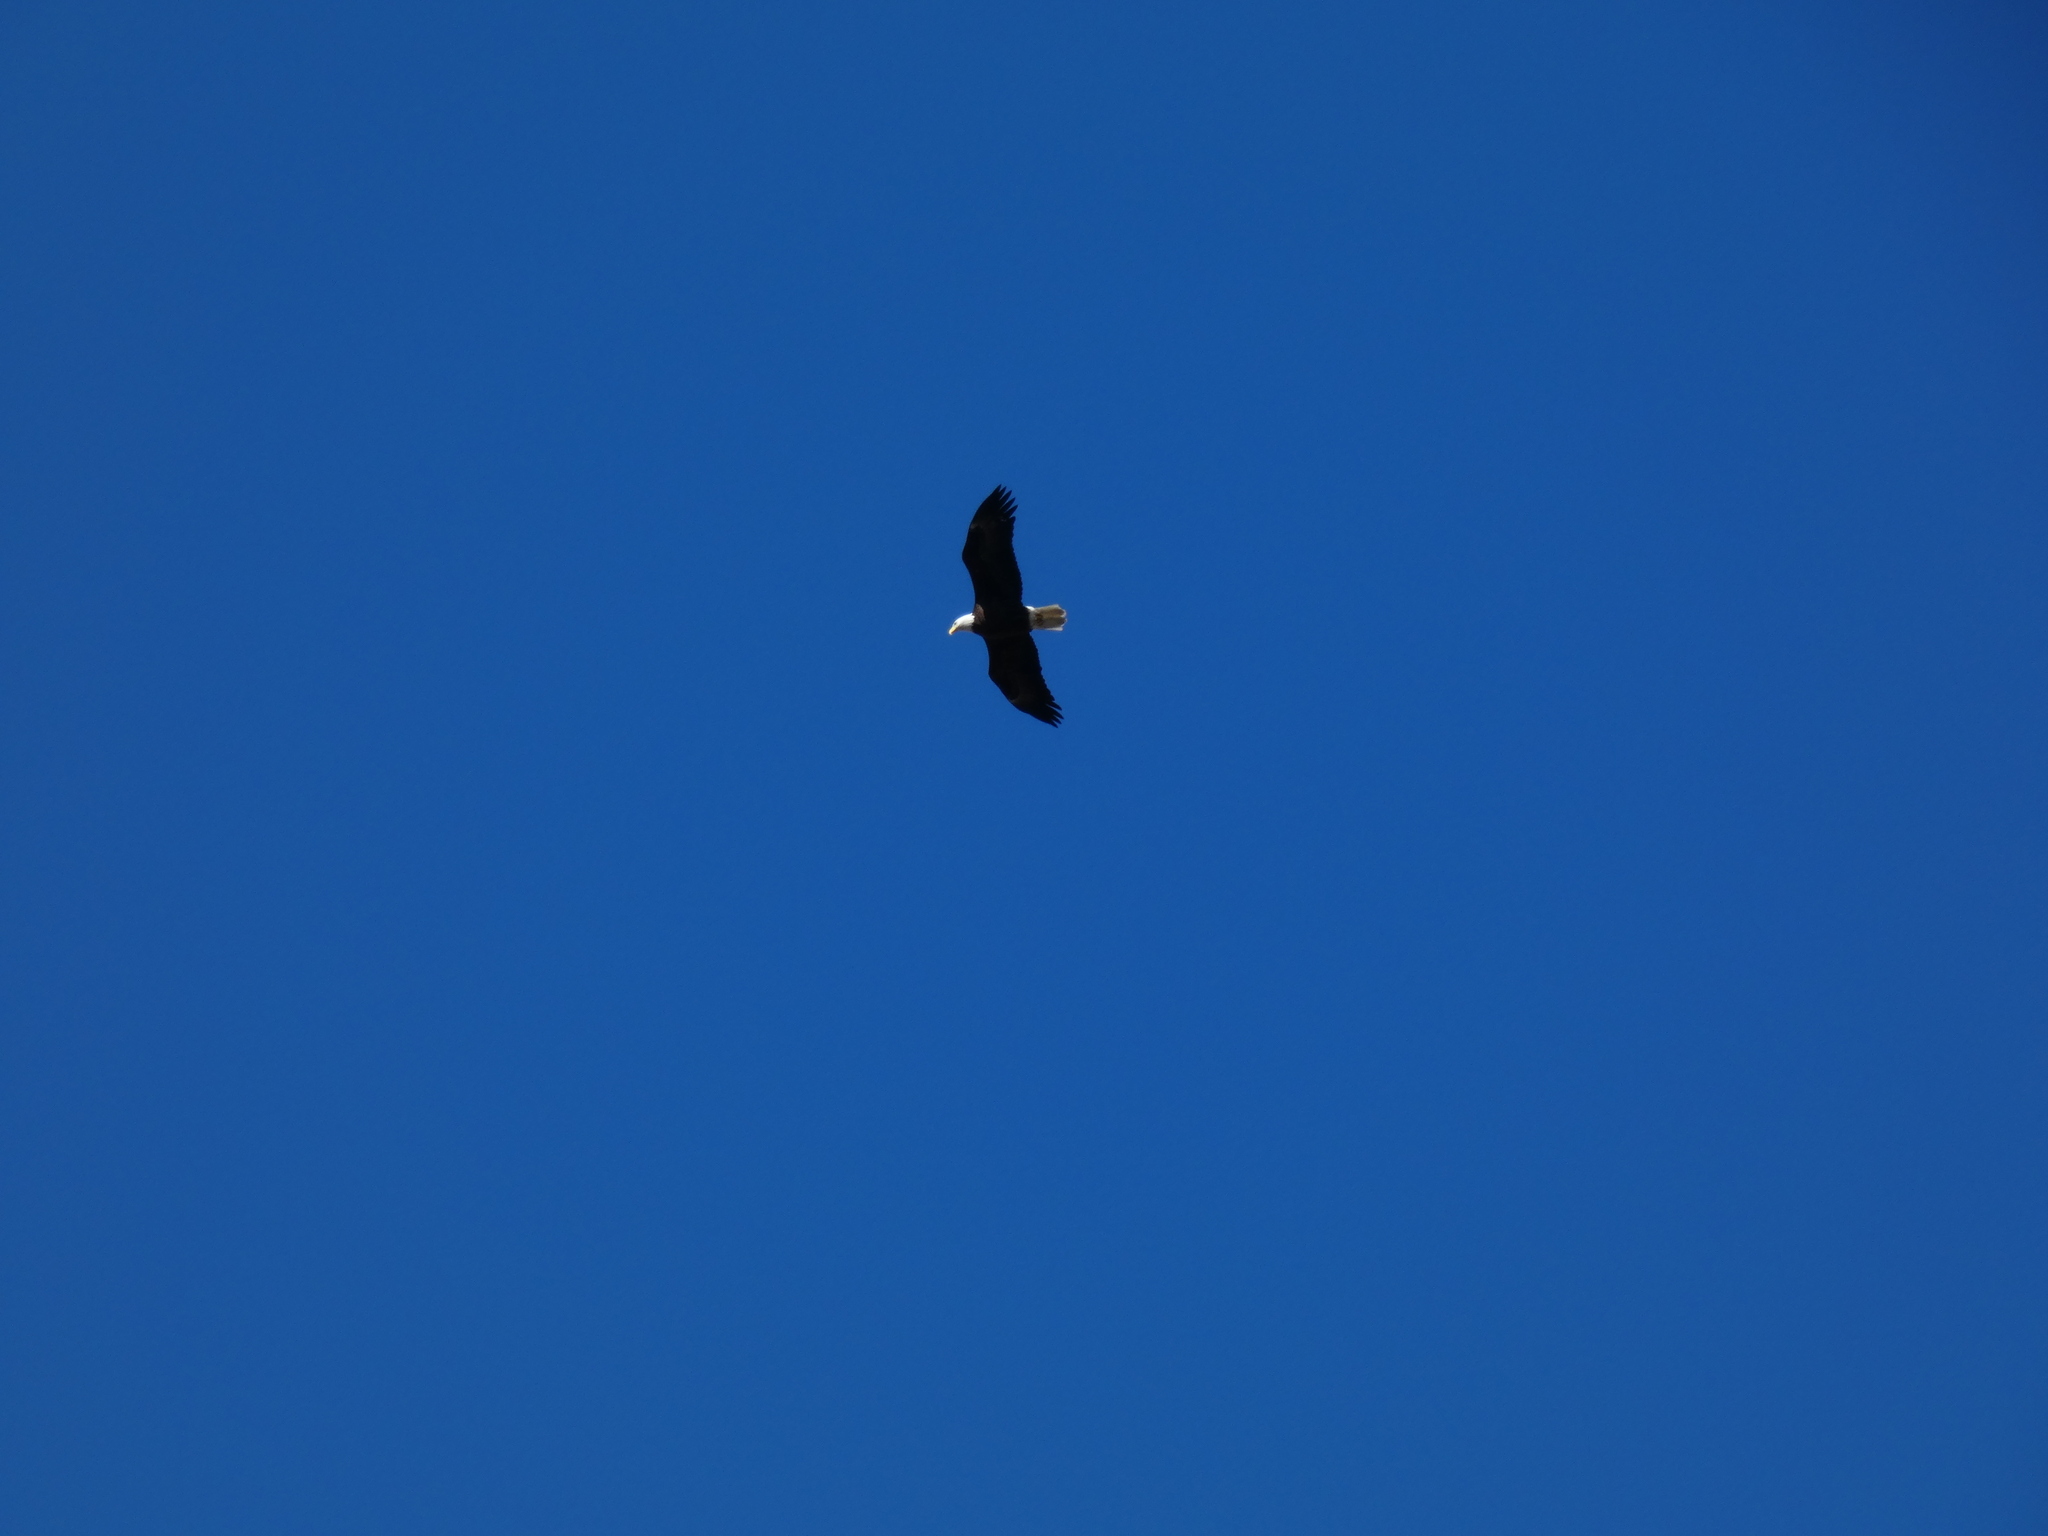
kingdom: Animalia
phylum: Chordata
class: Aves
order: Accipitriformes
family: Accipitridae
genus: Haliaeetus
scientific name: Haliaeetus leucocephalus
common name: Bald eagle
